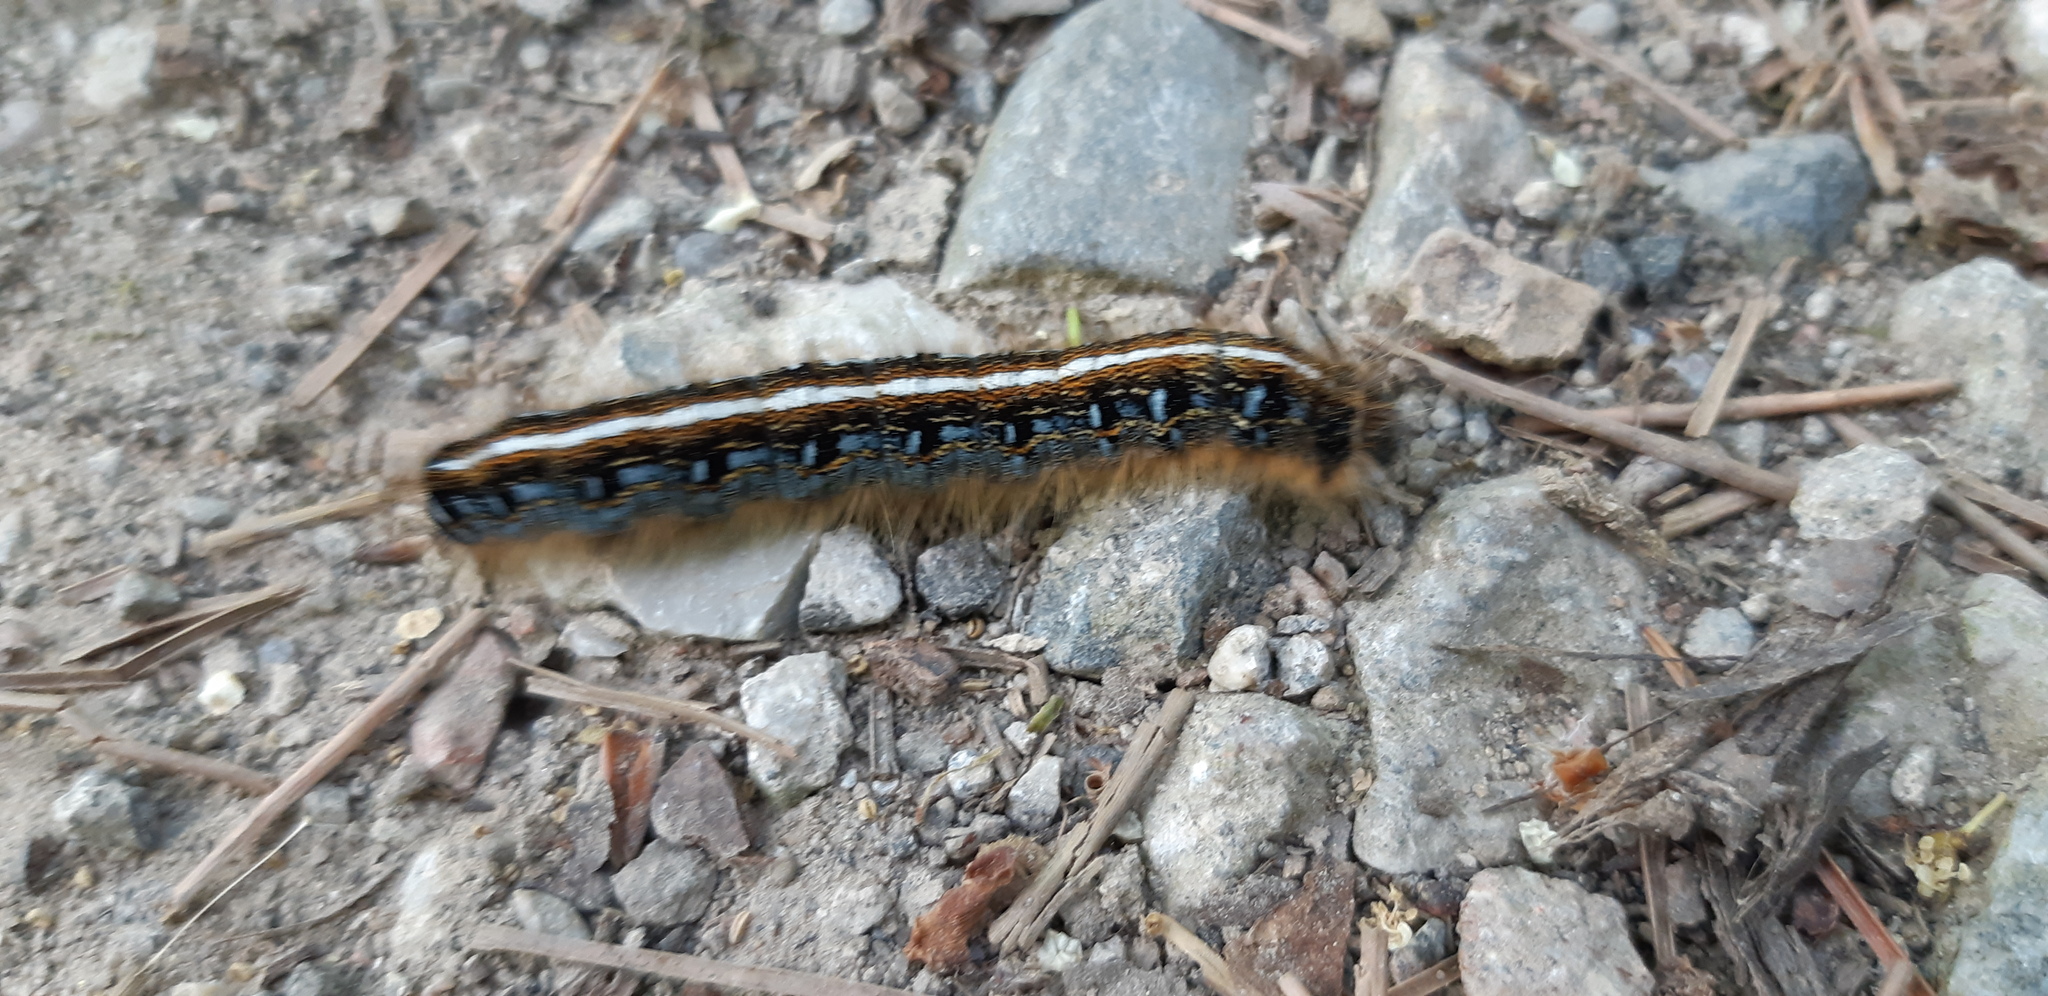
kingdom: Animalia
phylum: Arthropoda
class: Insecta
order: Lepidoptera
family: Lasiocampidae
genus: Malacosoma
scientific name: Malacosoma americana
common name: Eastern tent caterpillar moth
